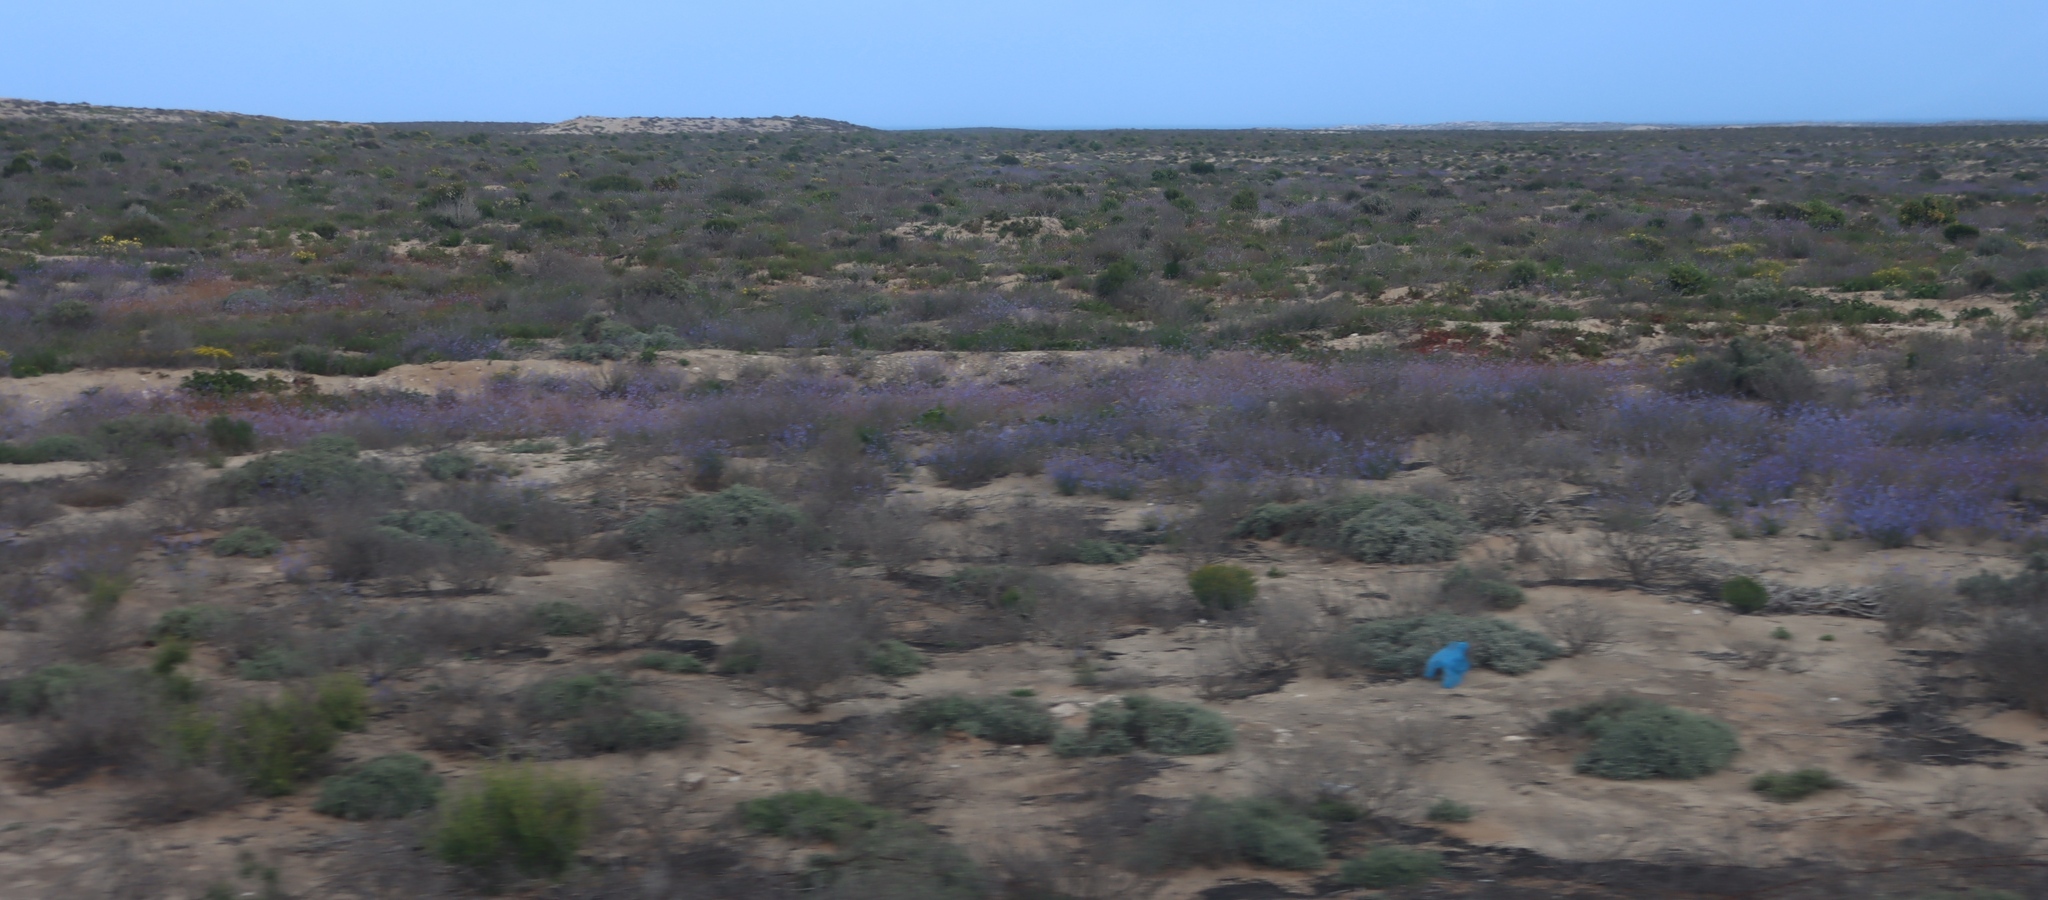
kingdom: Plantae
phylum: Tracheophyta
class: Magnoliopsida
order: Brassicales
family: Brassicaceae
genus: Heliophila
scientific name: Heliophila lactea
